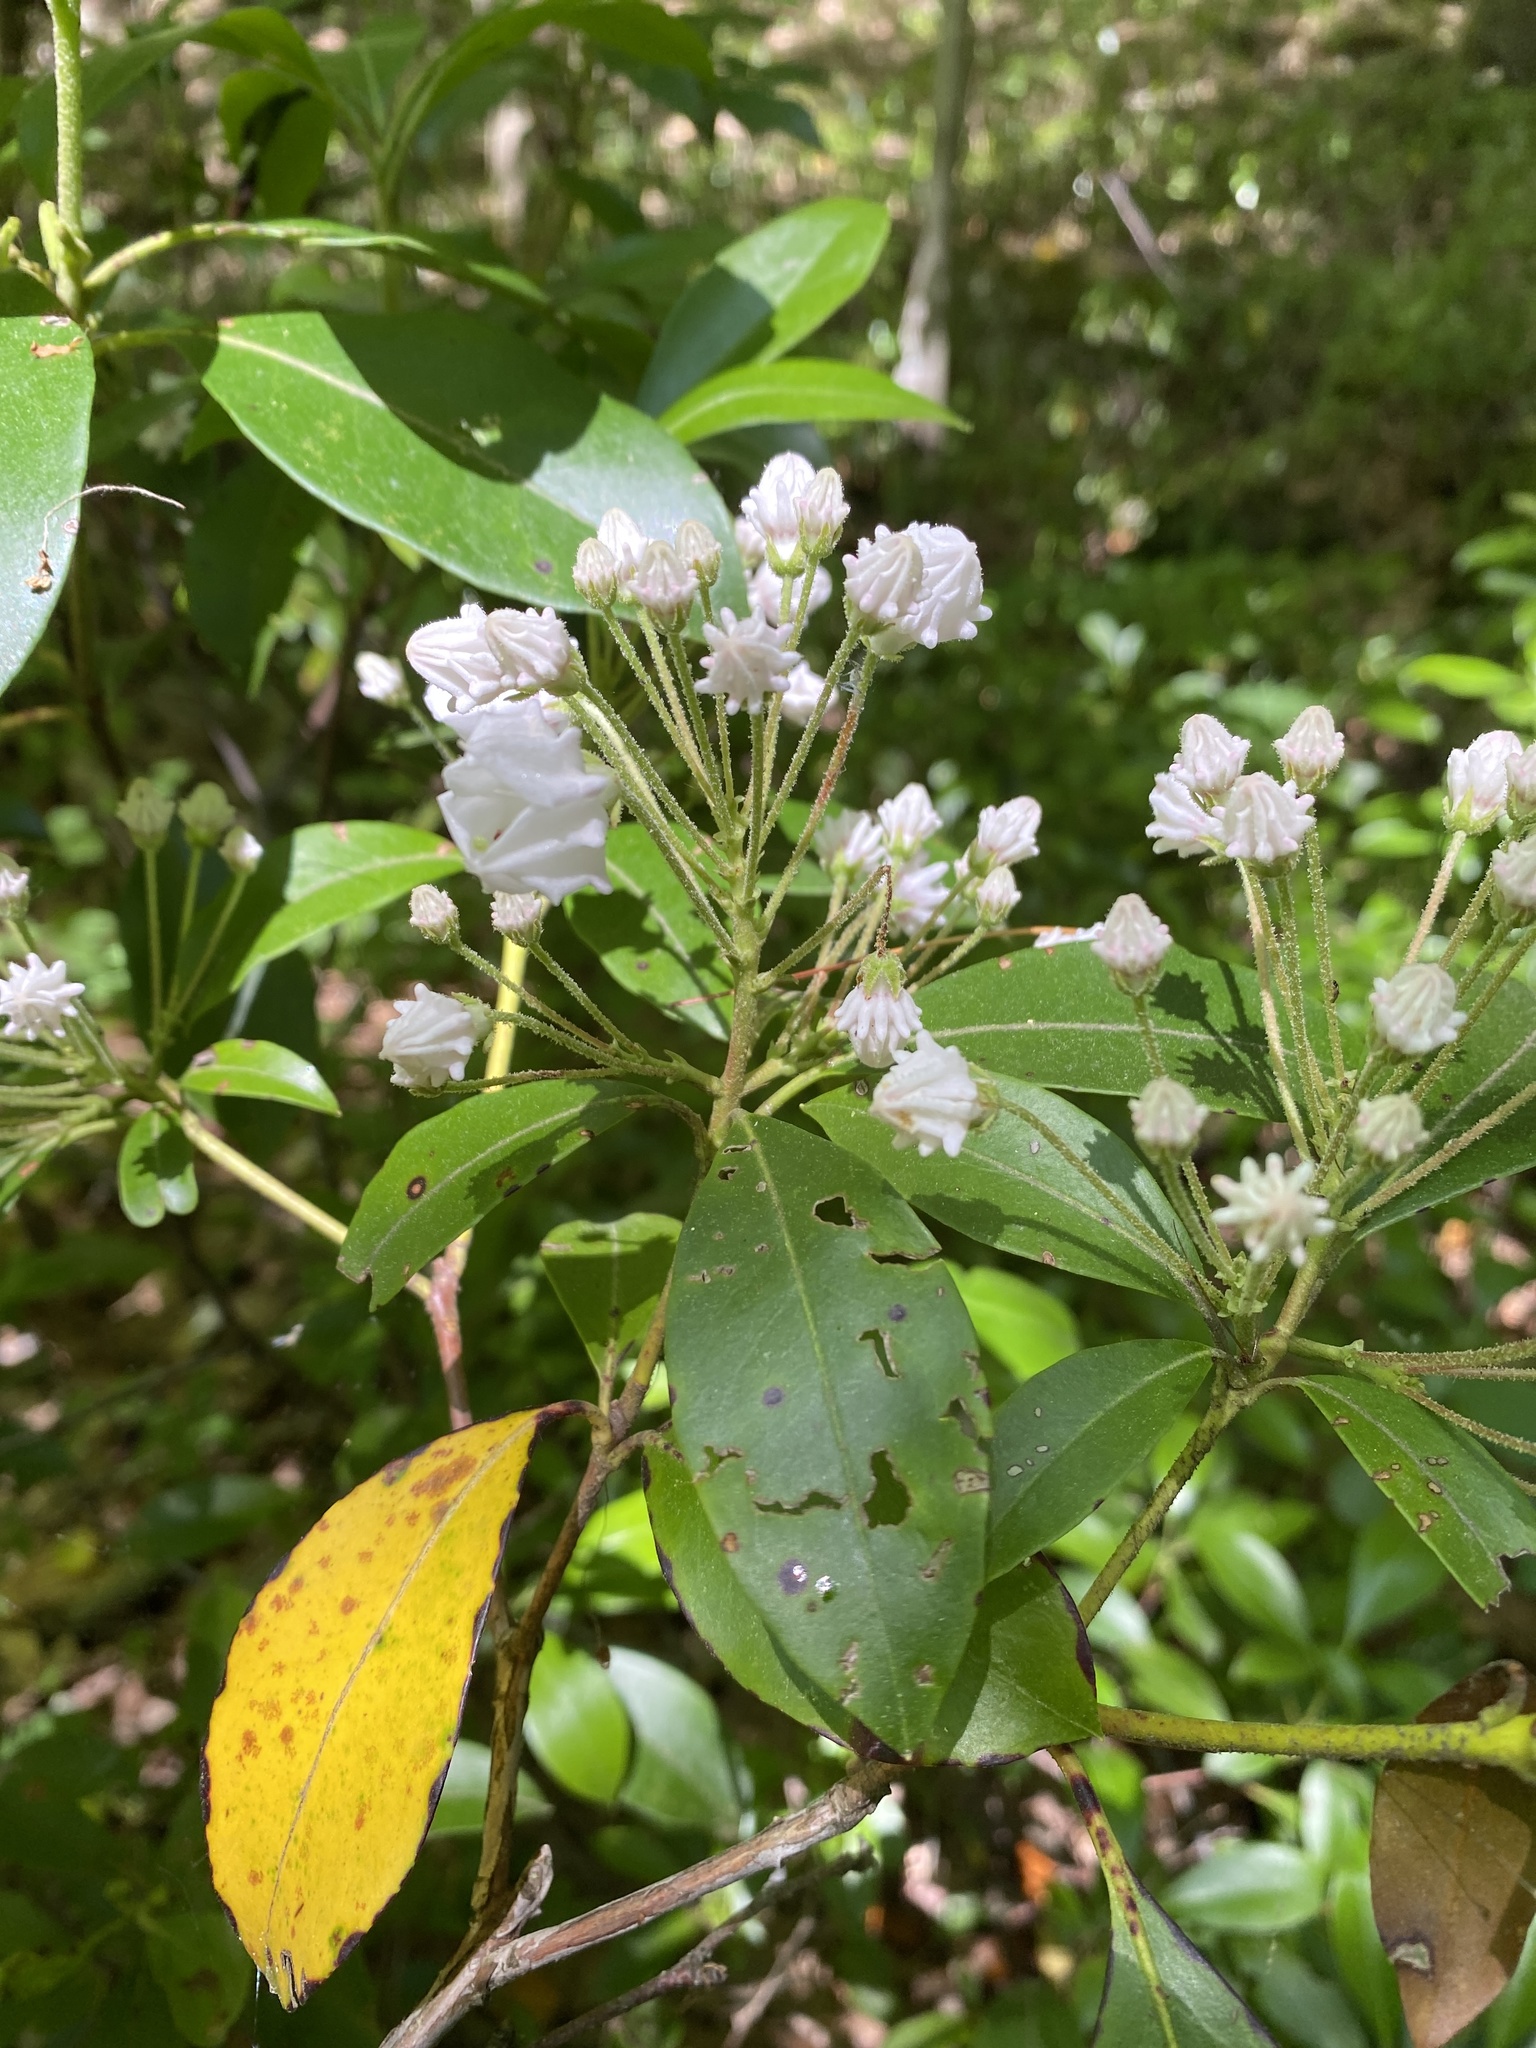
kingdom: Plantae
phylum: Tracheophyta
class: Magnoliopsida
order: Ericales
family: Ericaceae
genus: Kalmia
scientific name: Kalmia latifolia
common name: Mountain-laurel
